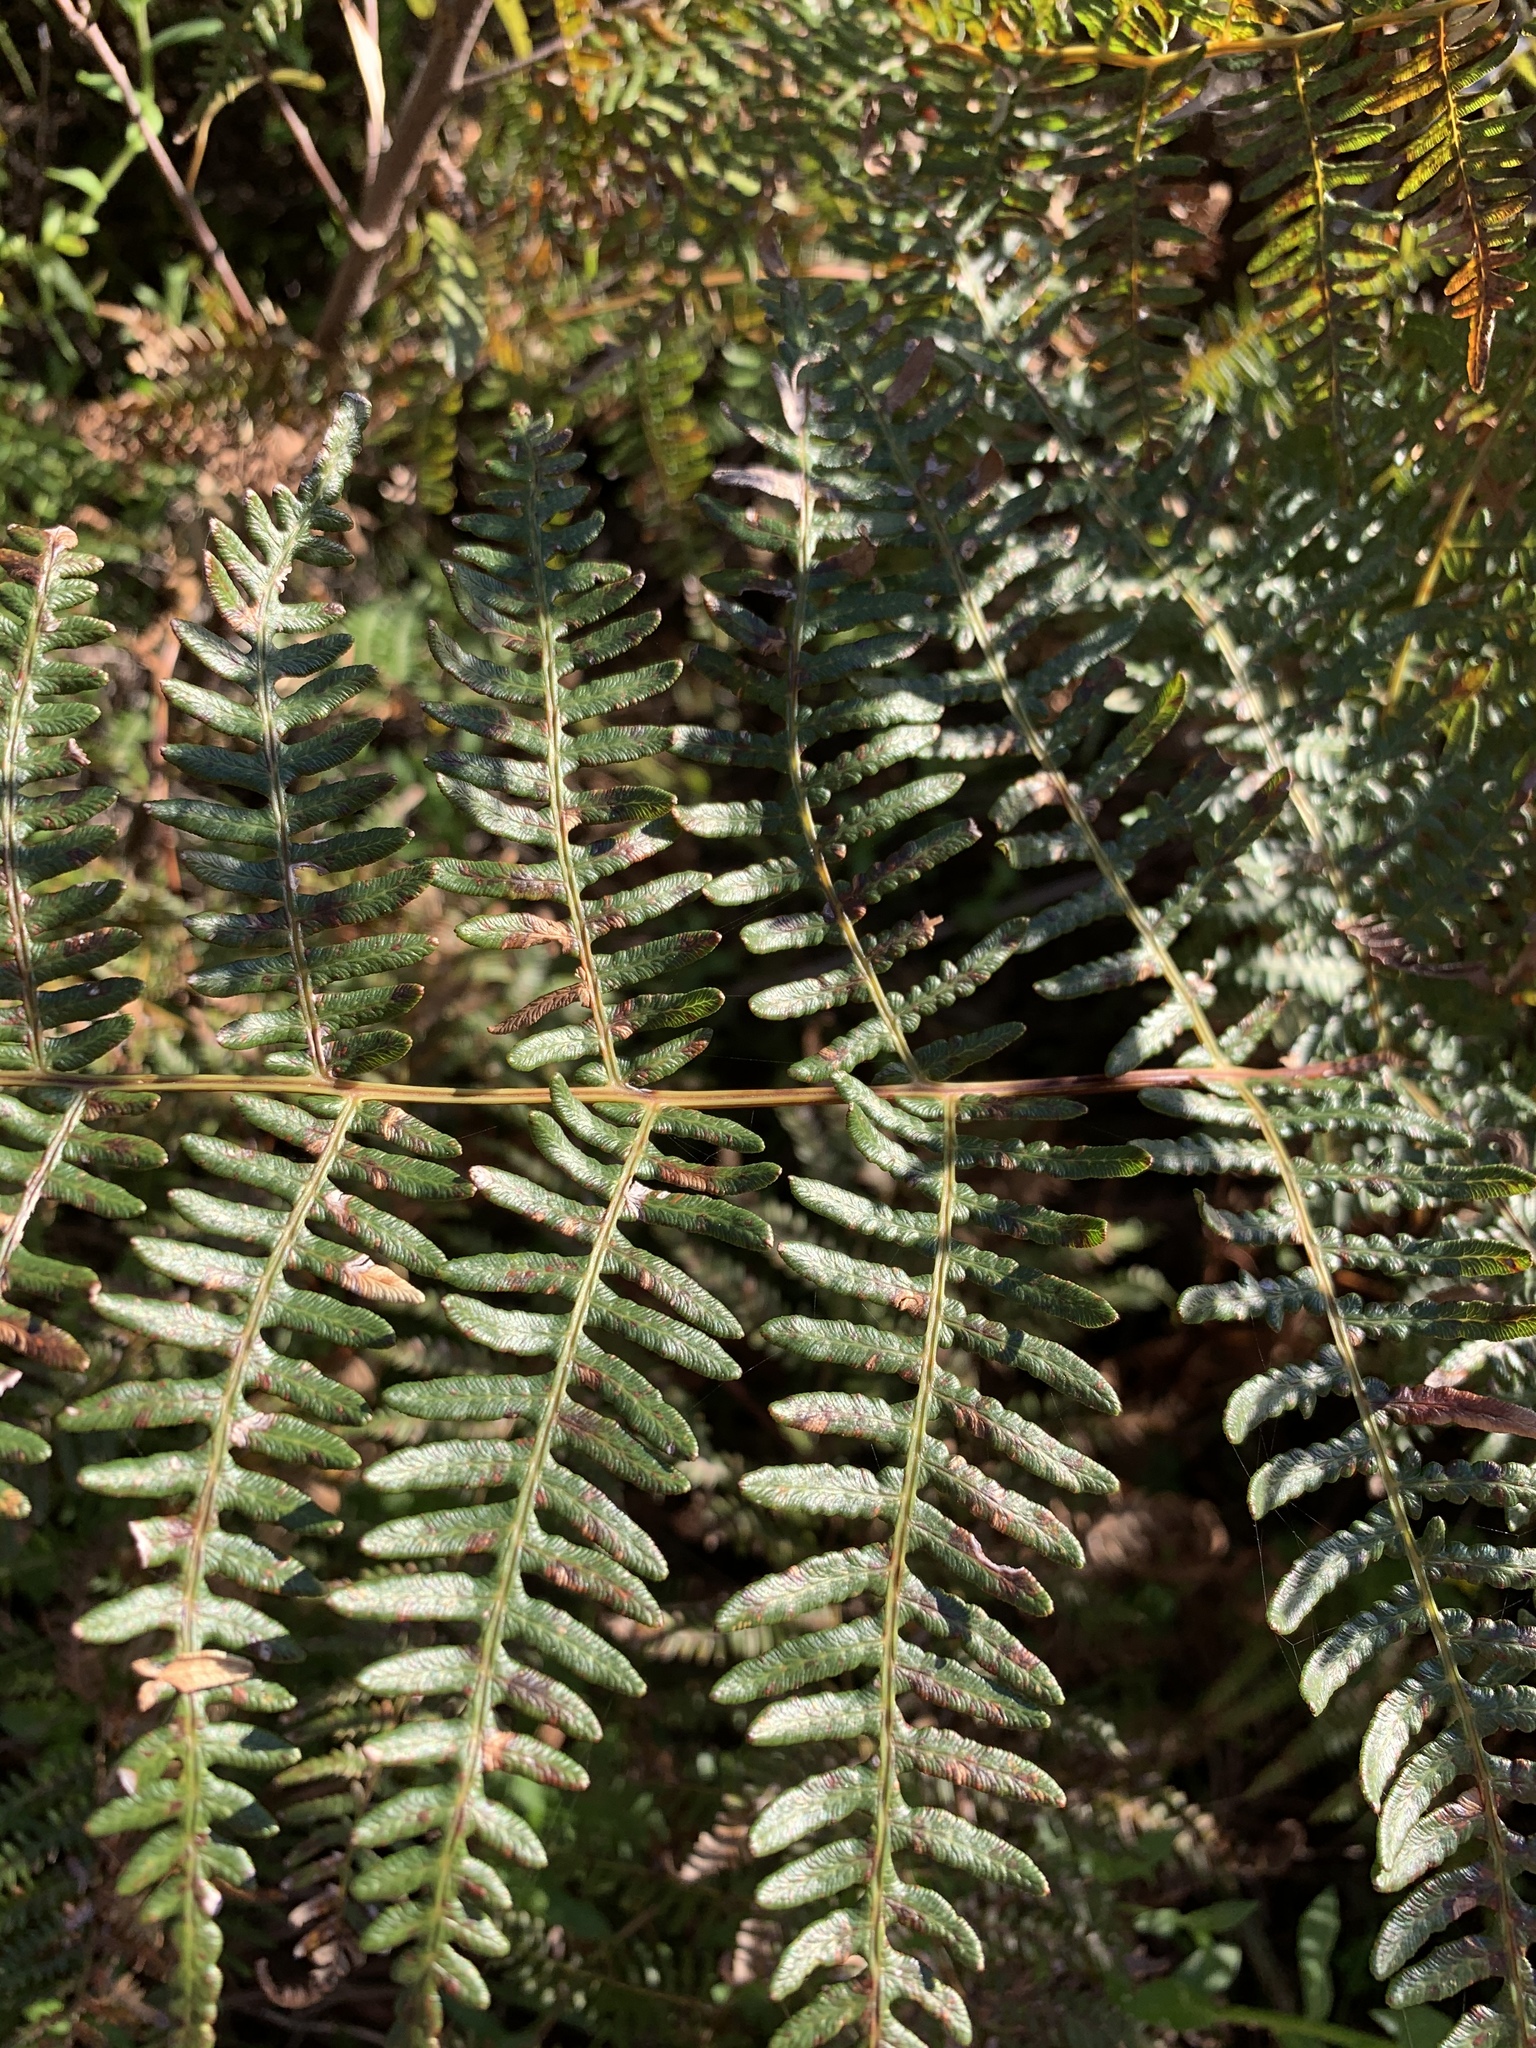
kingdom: Plantae
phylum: Tracheophyta
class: Polypodiopsida
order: Polypodiales
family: Dennstaedtiaceae
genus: Pteridium
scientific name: Pteridium aquilinum
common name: Bracken
